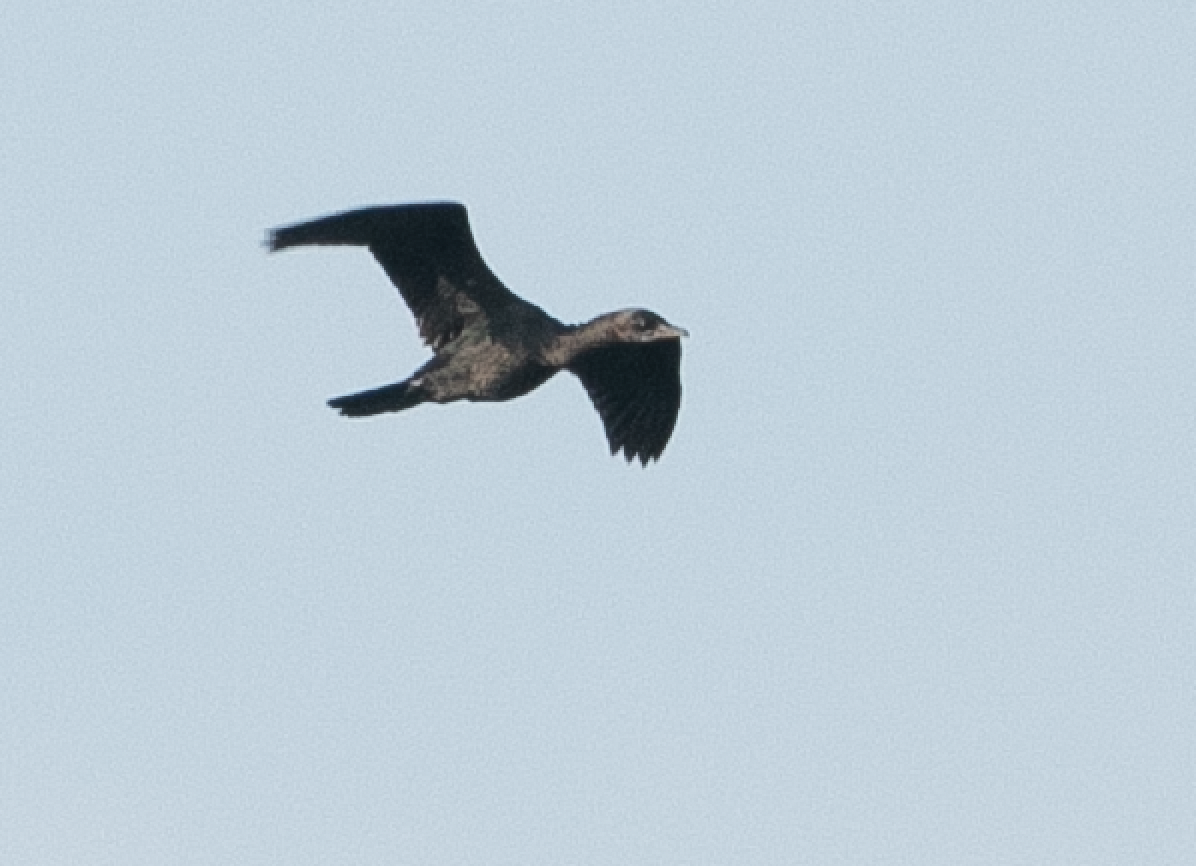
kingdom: Animalia
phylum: Chordata
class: Aves
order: Suliformes
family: Phalacrocoracidae
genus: Microcarbo
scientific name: Microcarbo pygmaeus
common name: Pygmy cormorant
